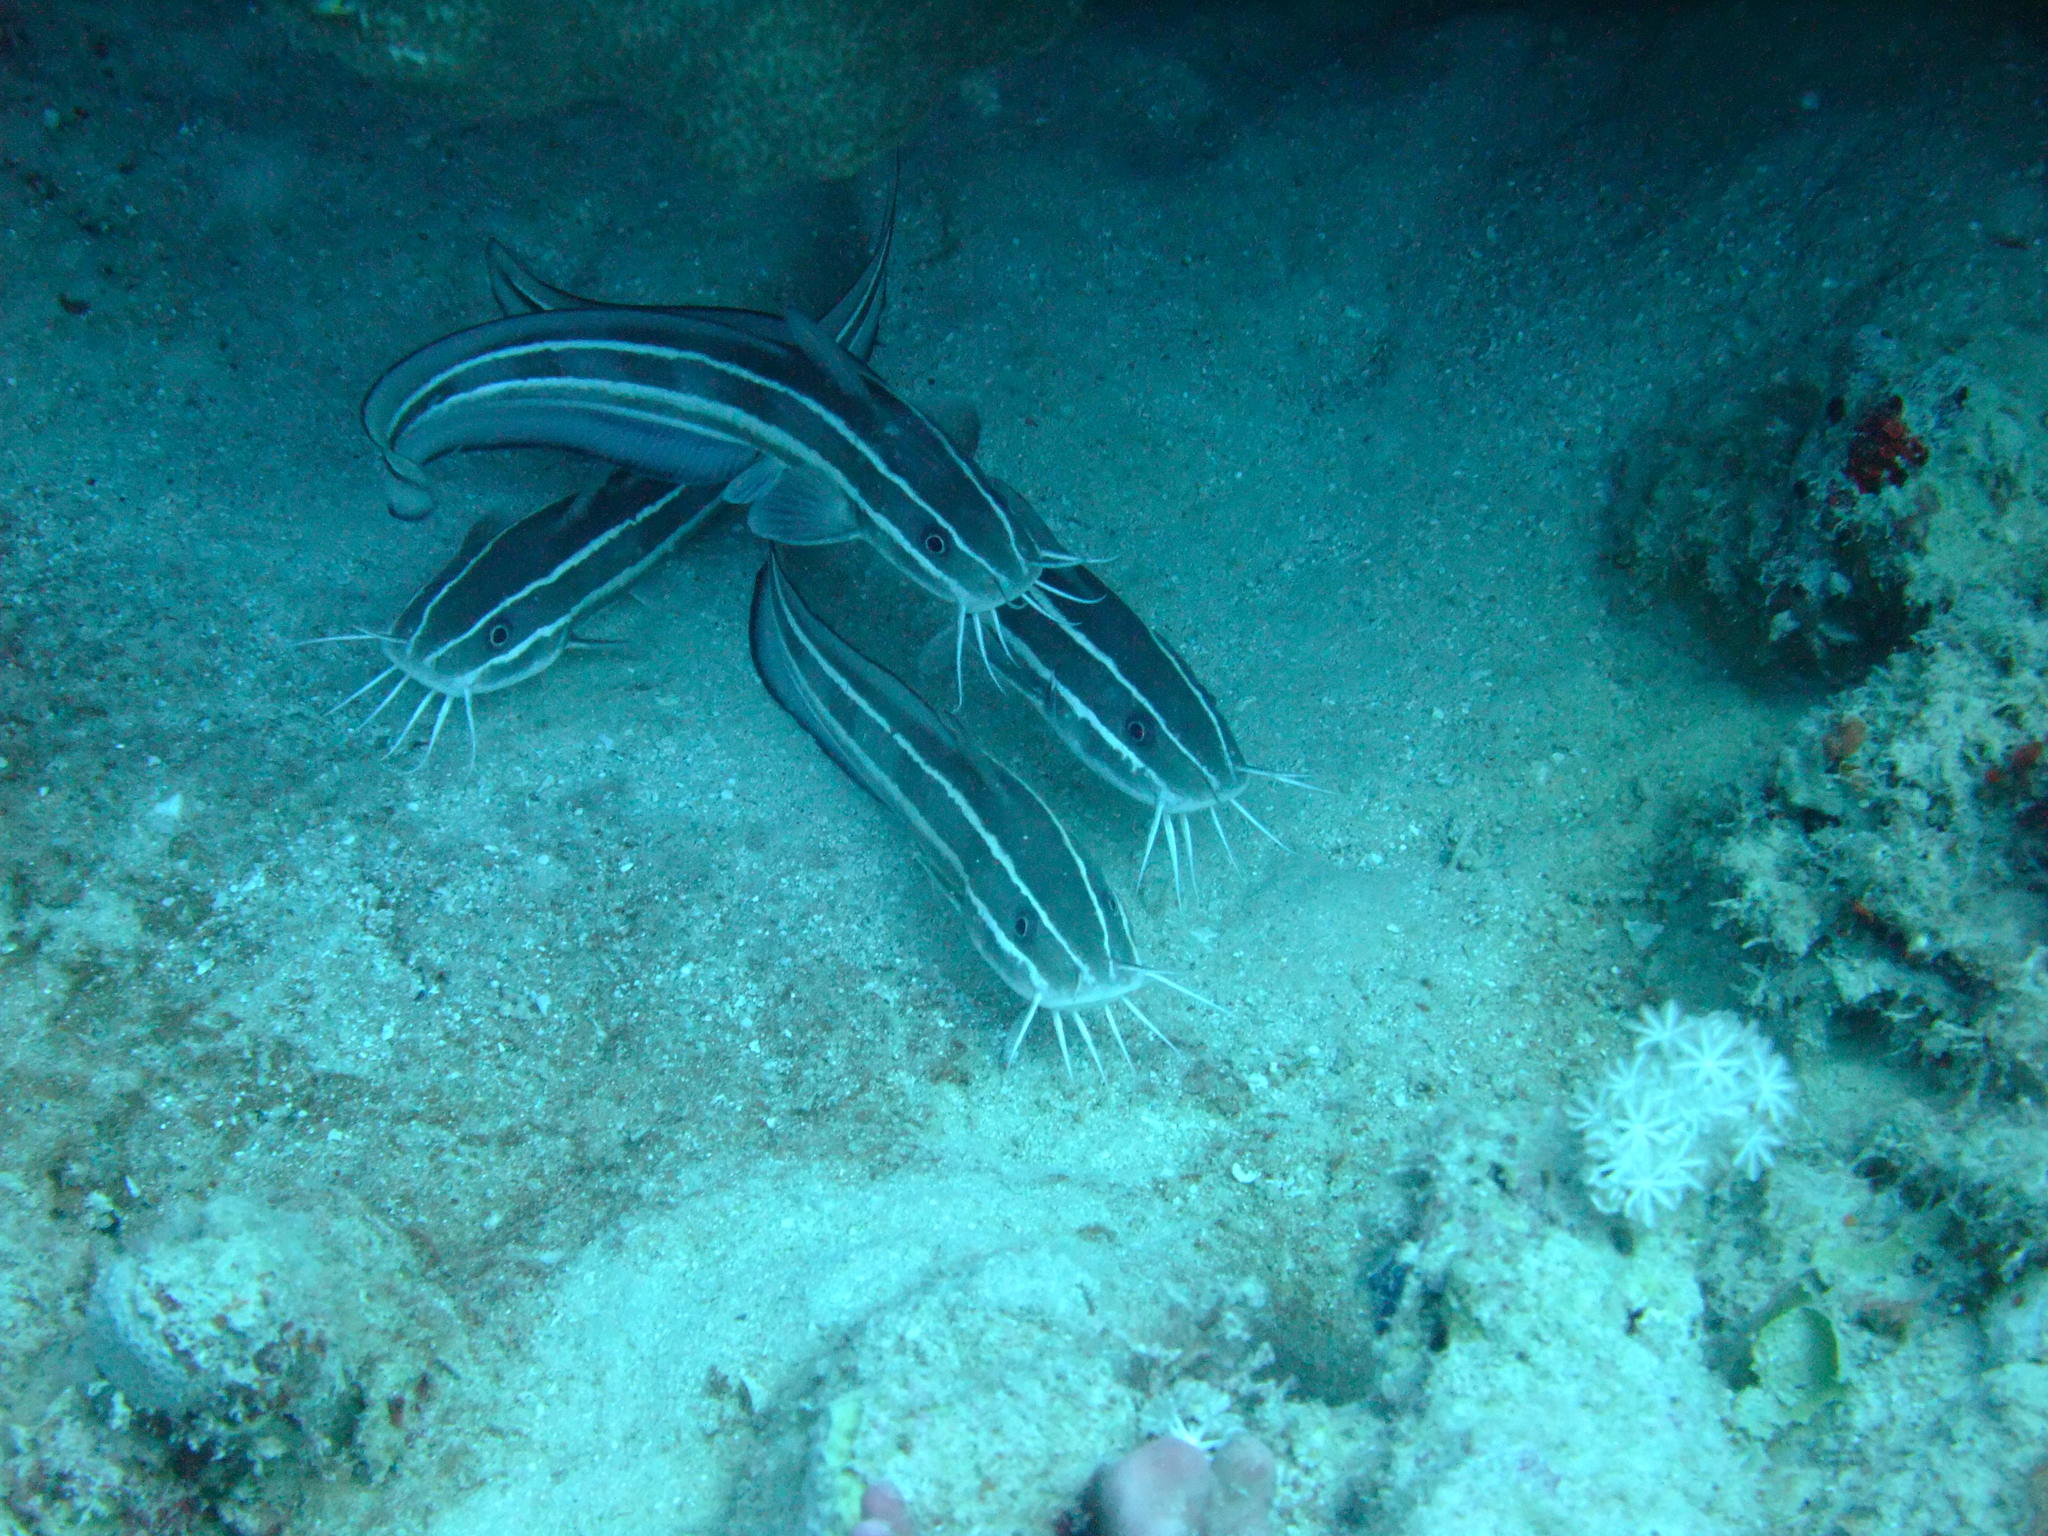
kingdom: Animalia
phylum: Chordata
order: Siluriformes
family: Plotosidae
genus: Plotosus
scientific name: Plotosus lineatus
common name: Striped eel catfish
